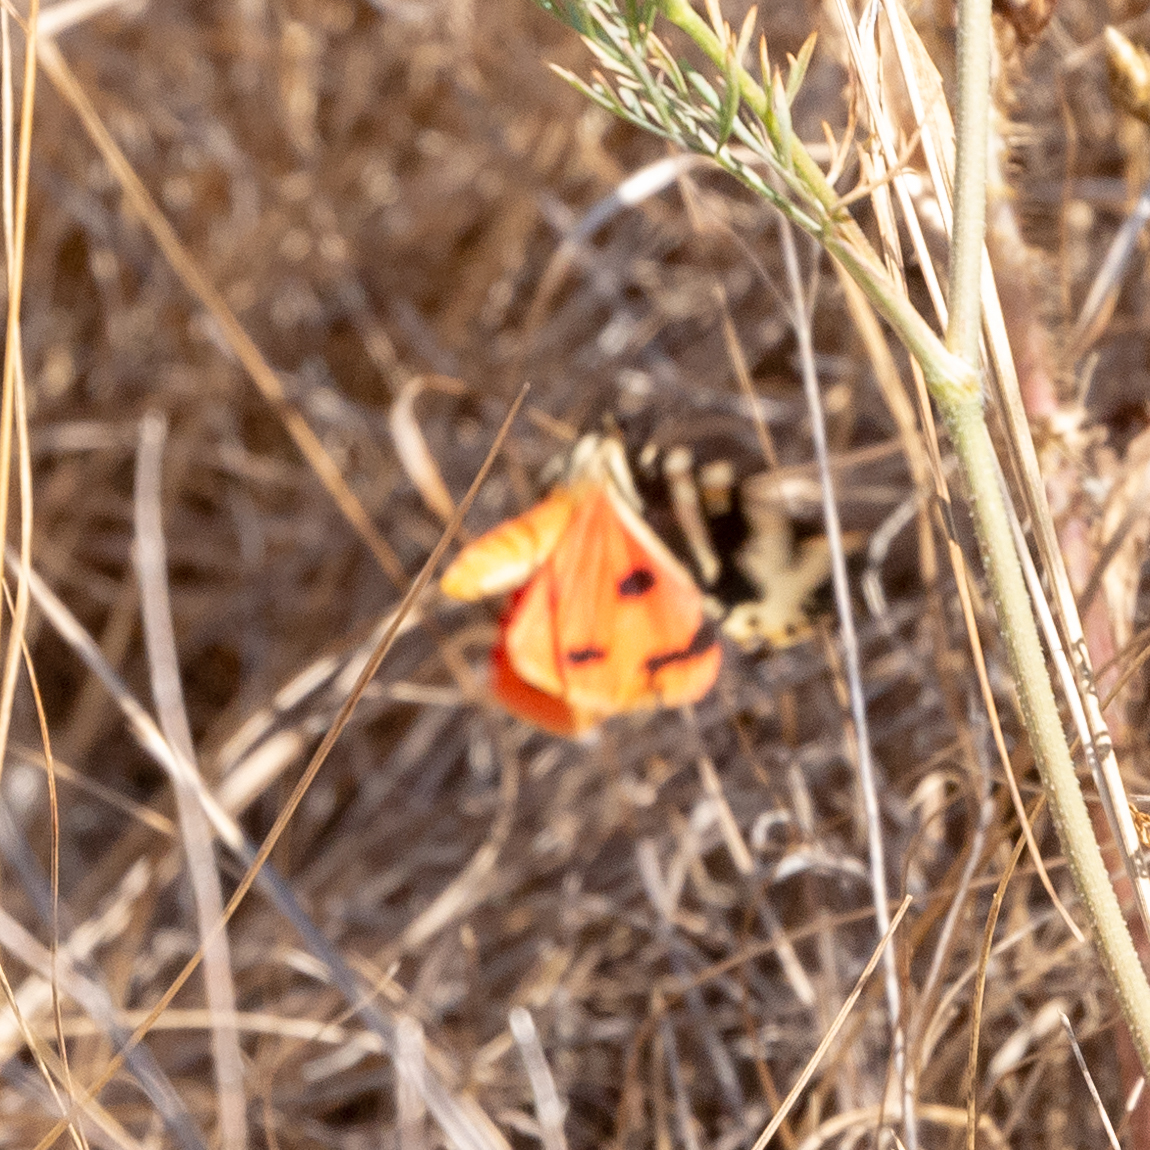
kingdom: Animalia
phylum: Arthropoda
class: Insecta
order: Lepidoptera
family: Erebidae
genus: Euplagia
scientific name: Euplagia quadripunctaria
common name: Jersey tiger
